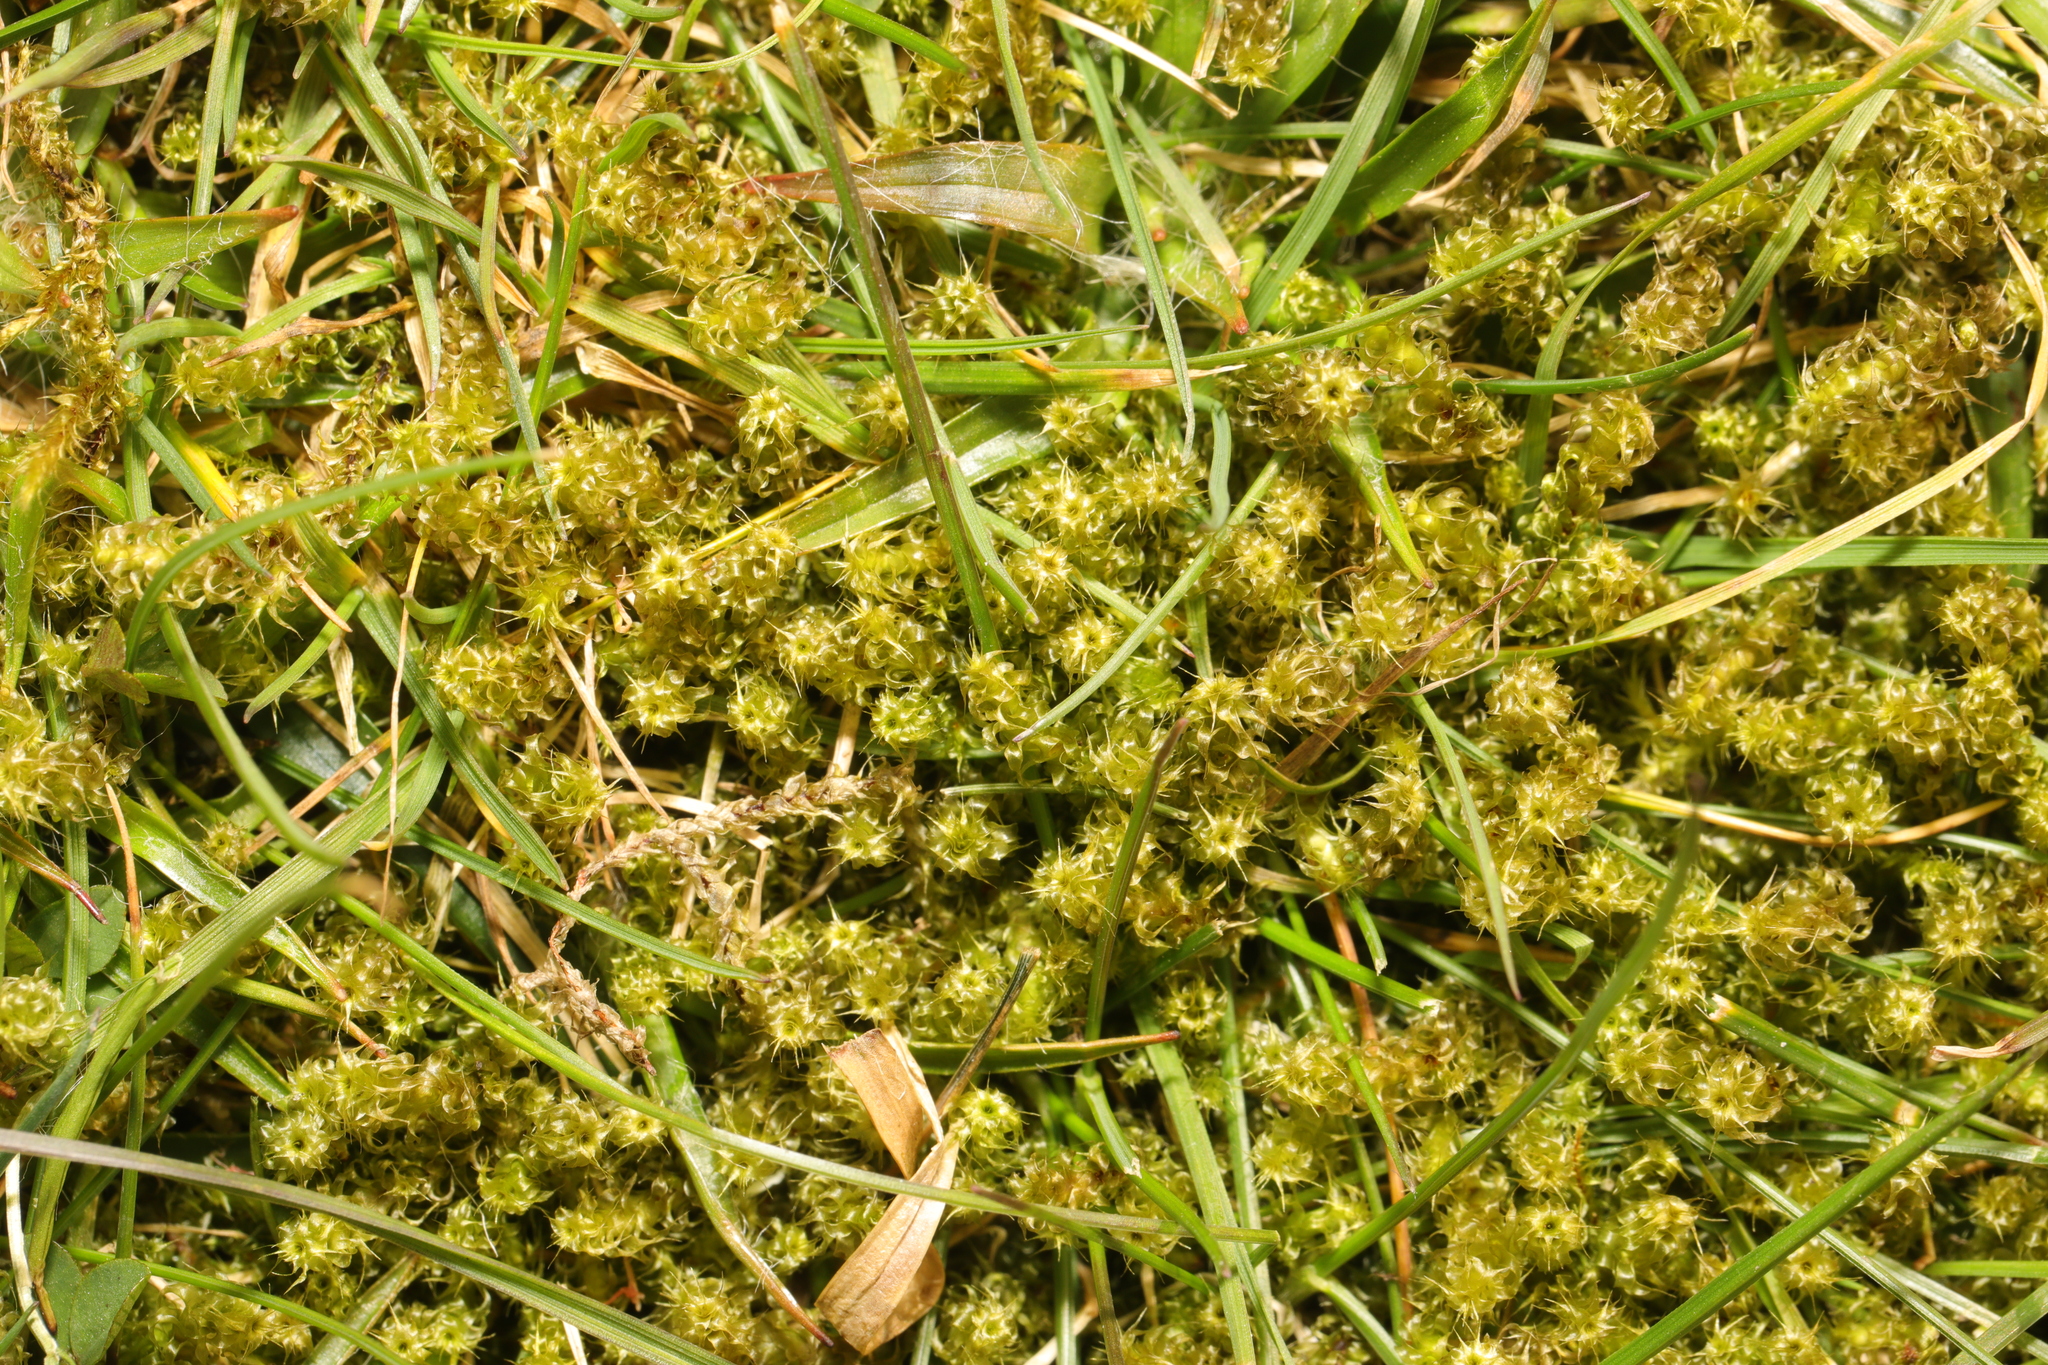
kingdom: Plantae
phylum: Bryophyta
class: Bryopsida
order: Hypnales
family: Hylocomiaceae
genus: Rhytidiadelphus
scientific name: Rhytidiadelphus squarrosus
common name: Springy turf-moss
